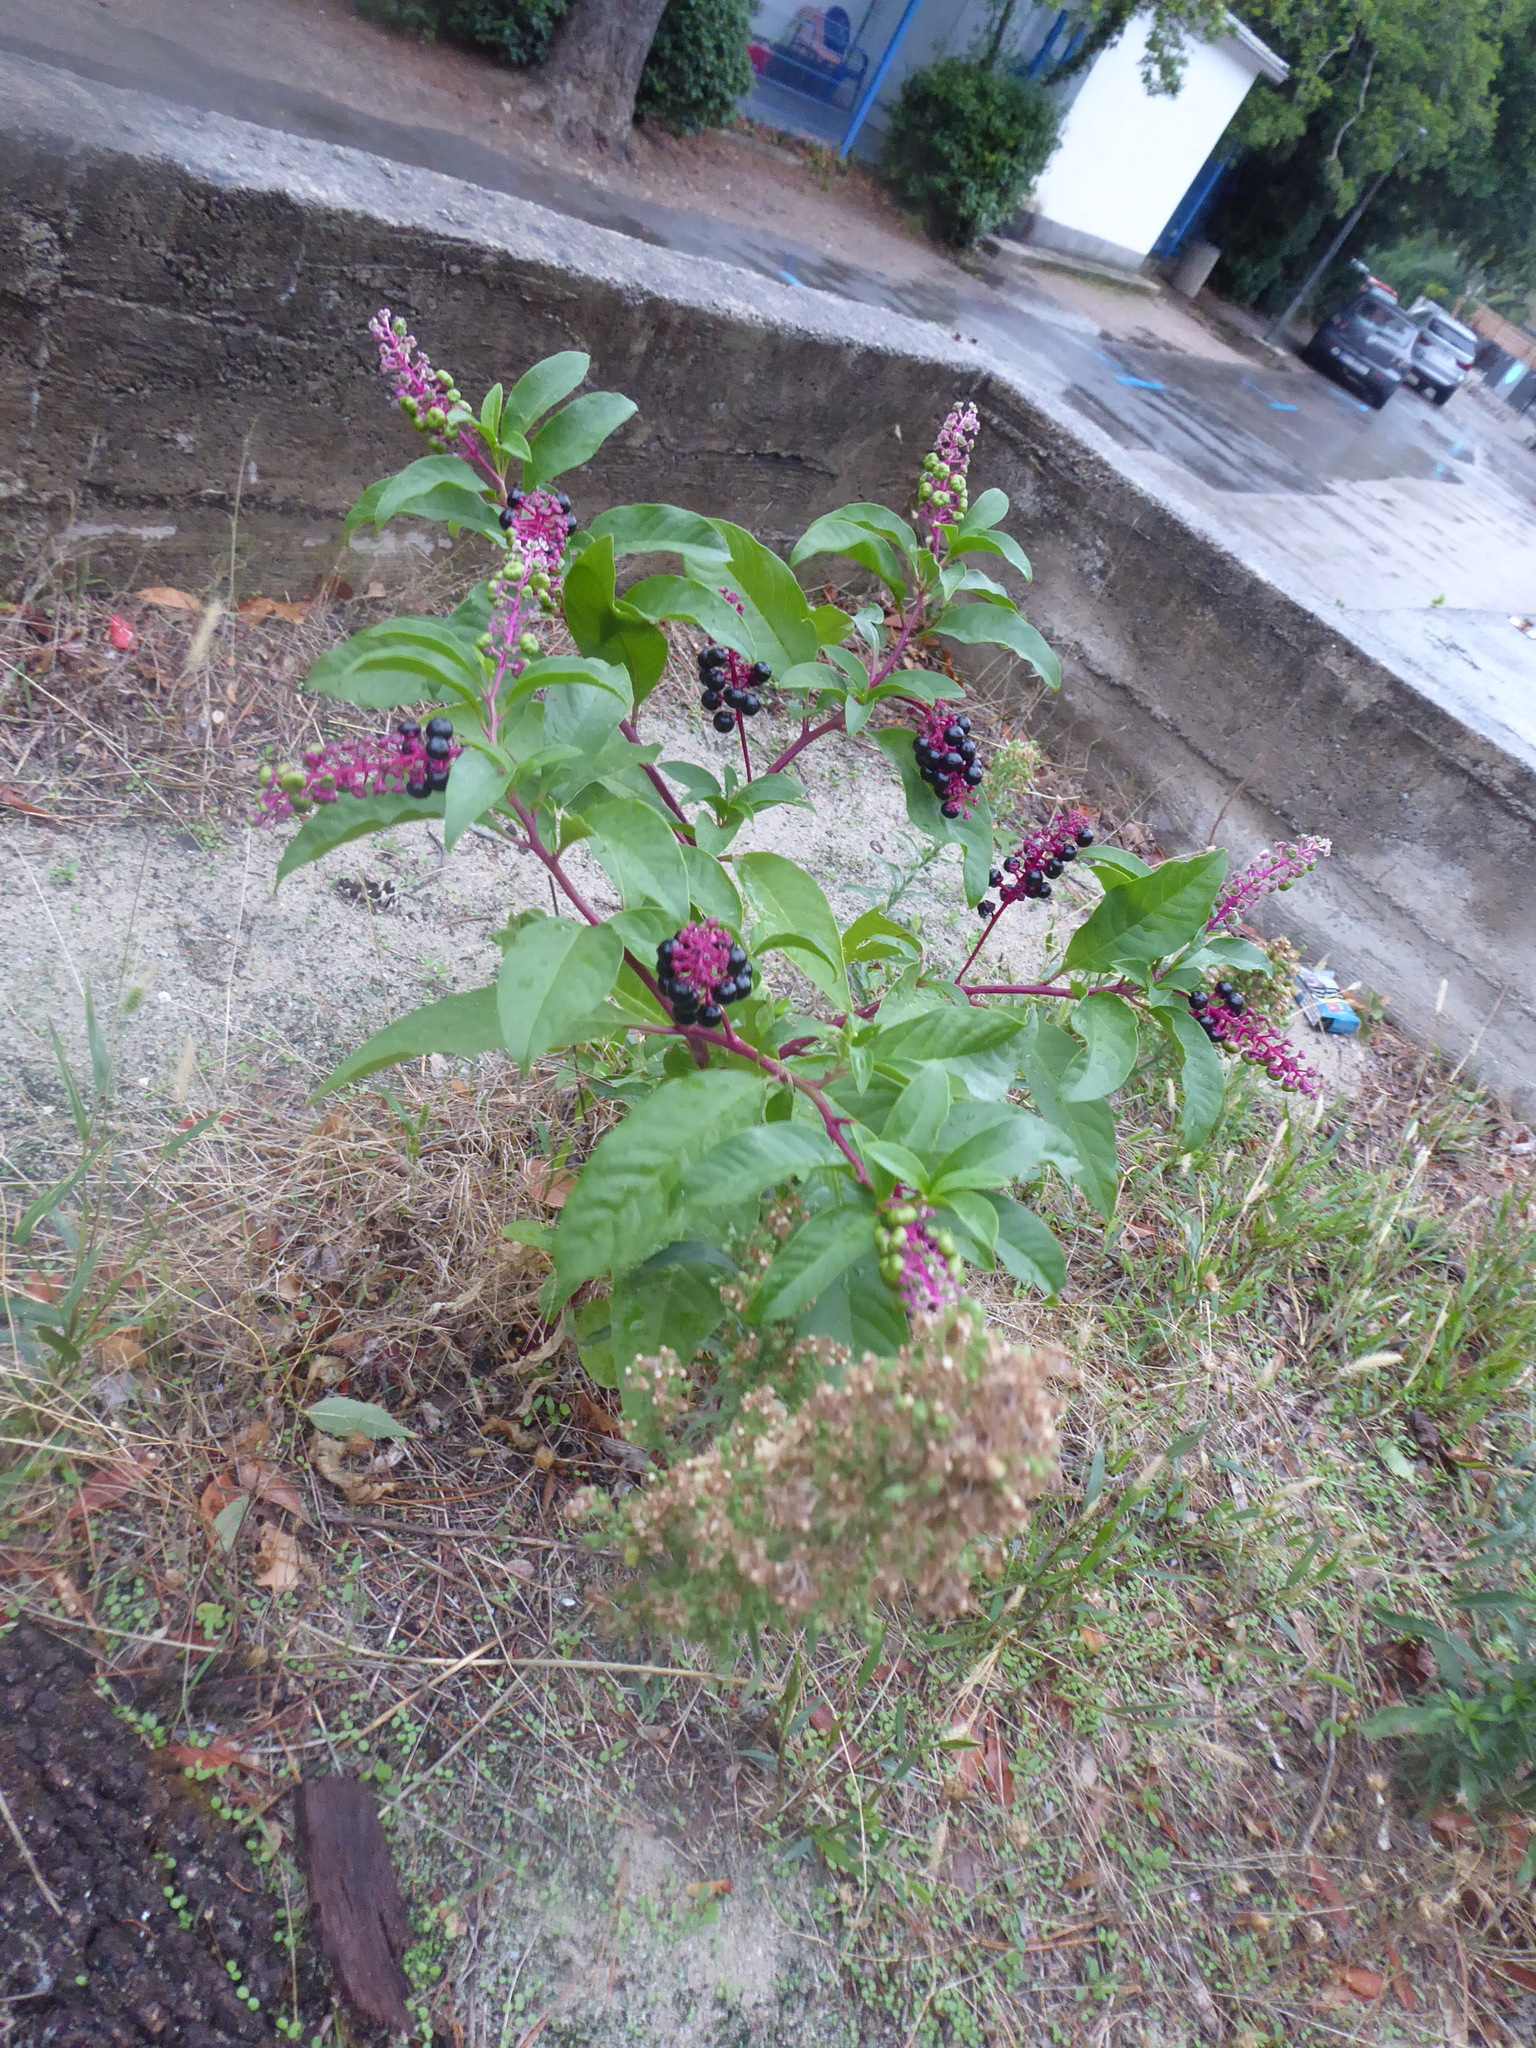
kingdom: Plantae
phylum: Tracheophyta
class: Magnoliopsida
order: Caryophyllales
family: Phytolaccaceae
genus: Phytolacca
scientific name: Phytolacca americana
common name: American pokeweed
